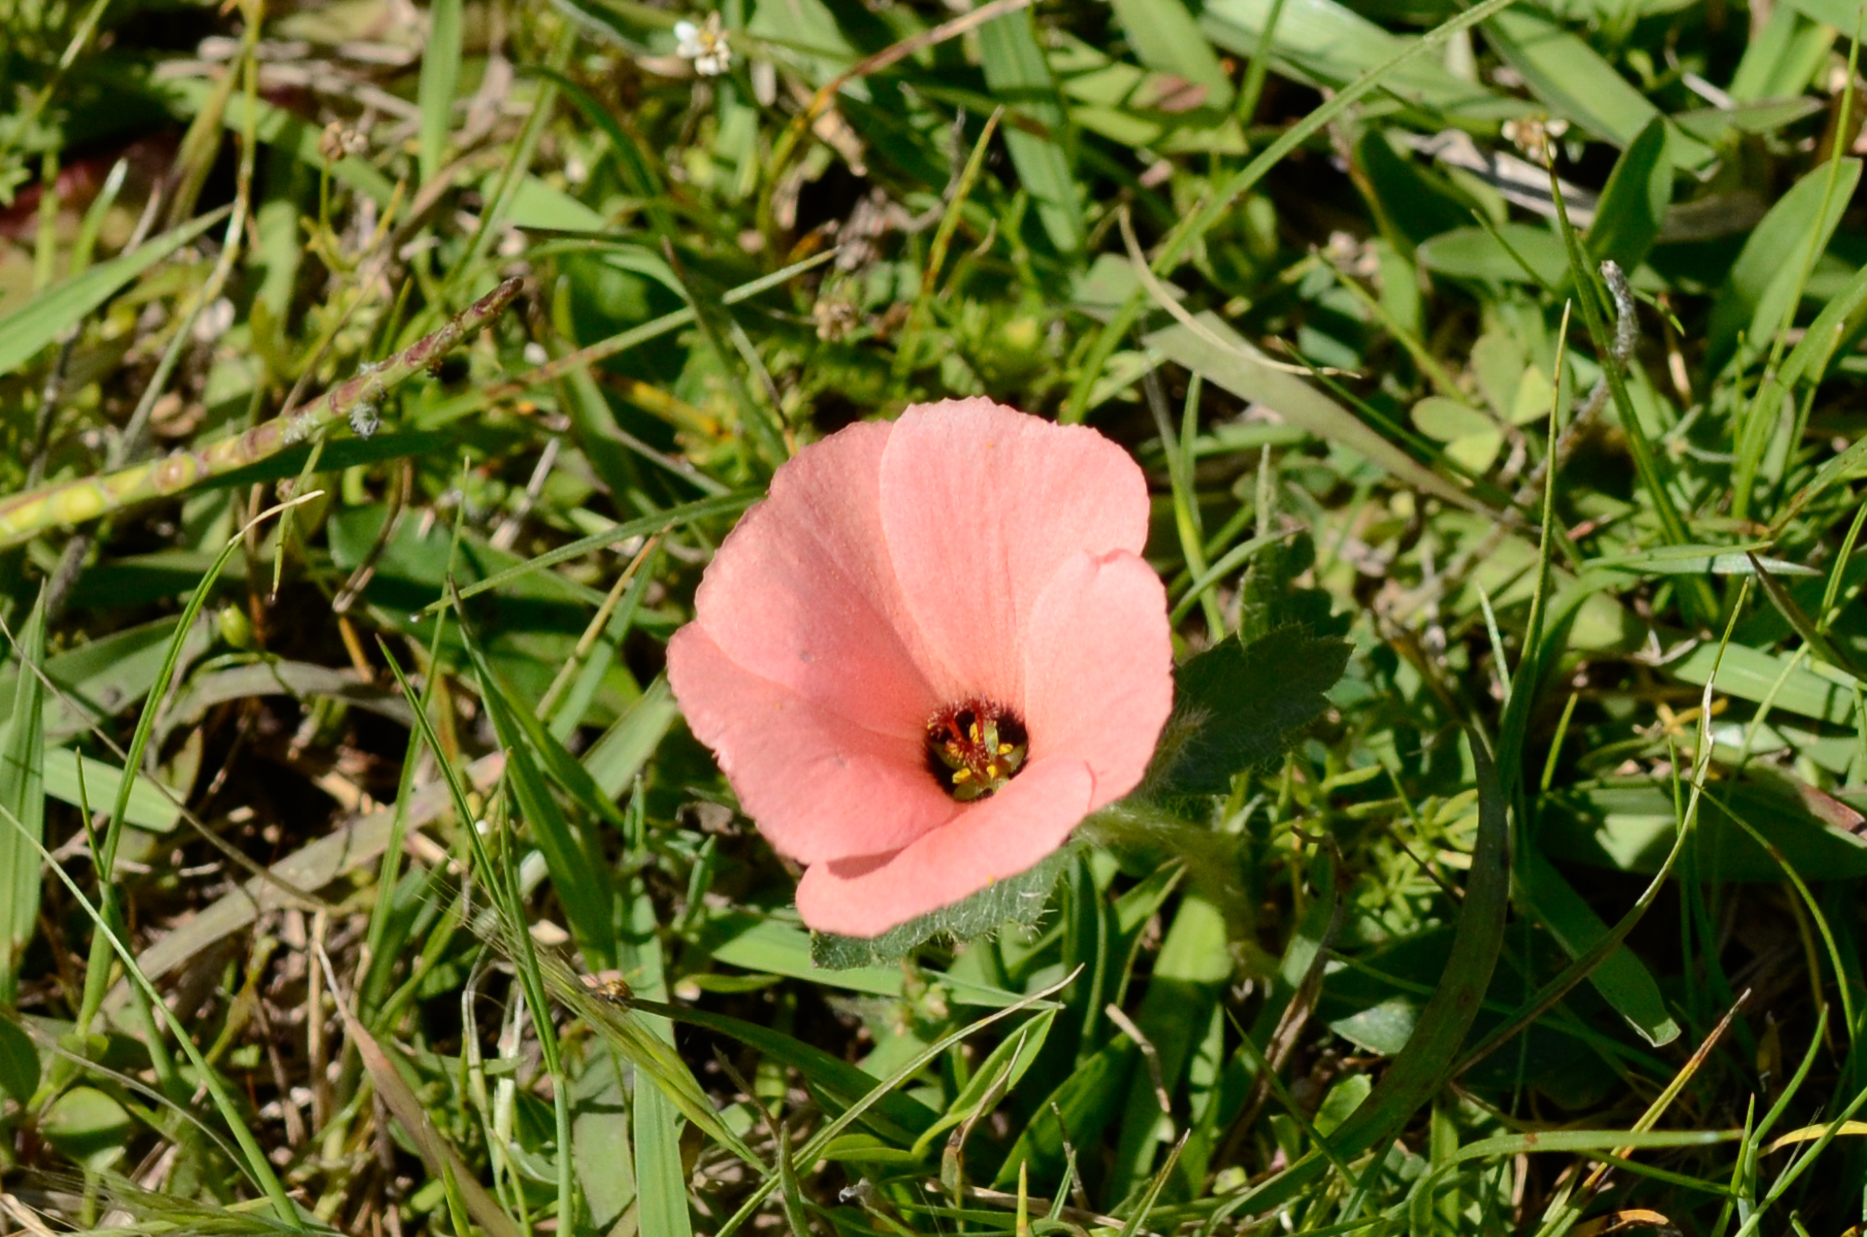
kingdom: Plantae
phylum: Tracheophyta
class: Magnoliopsida
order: Malpighiales
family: Turneraceae
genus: Turnera
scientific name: Turnera sidoides
